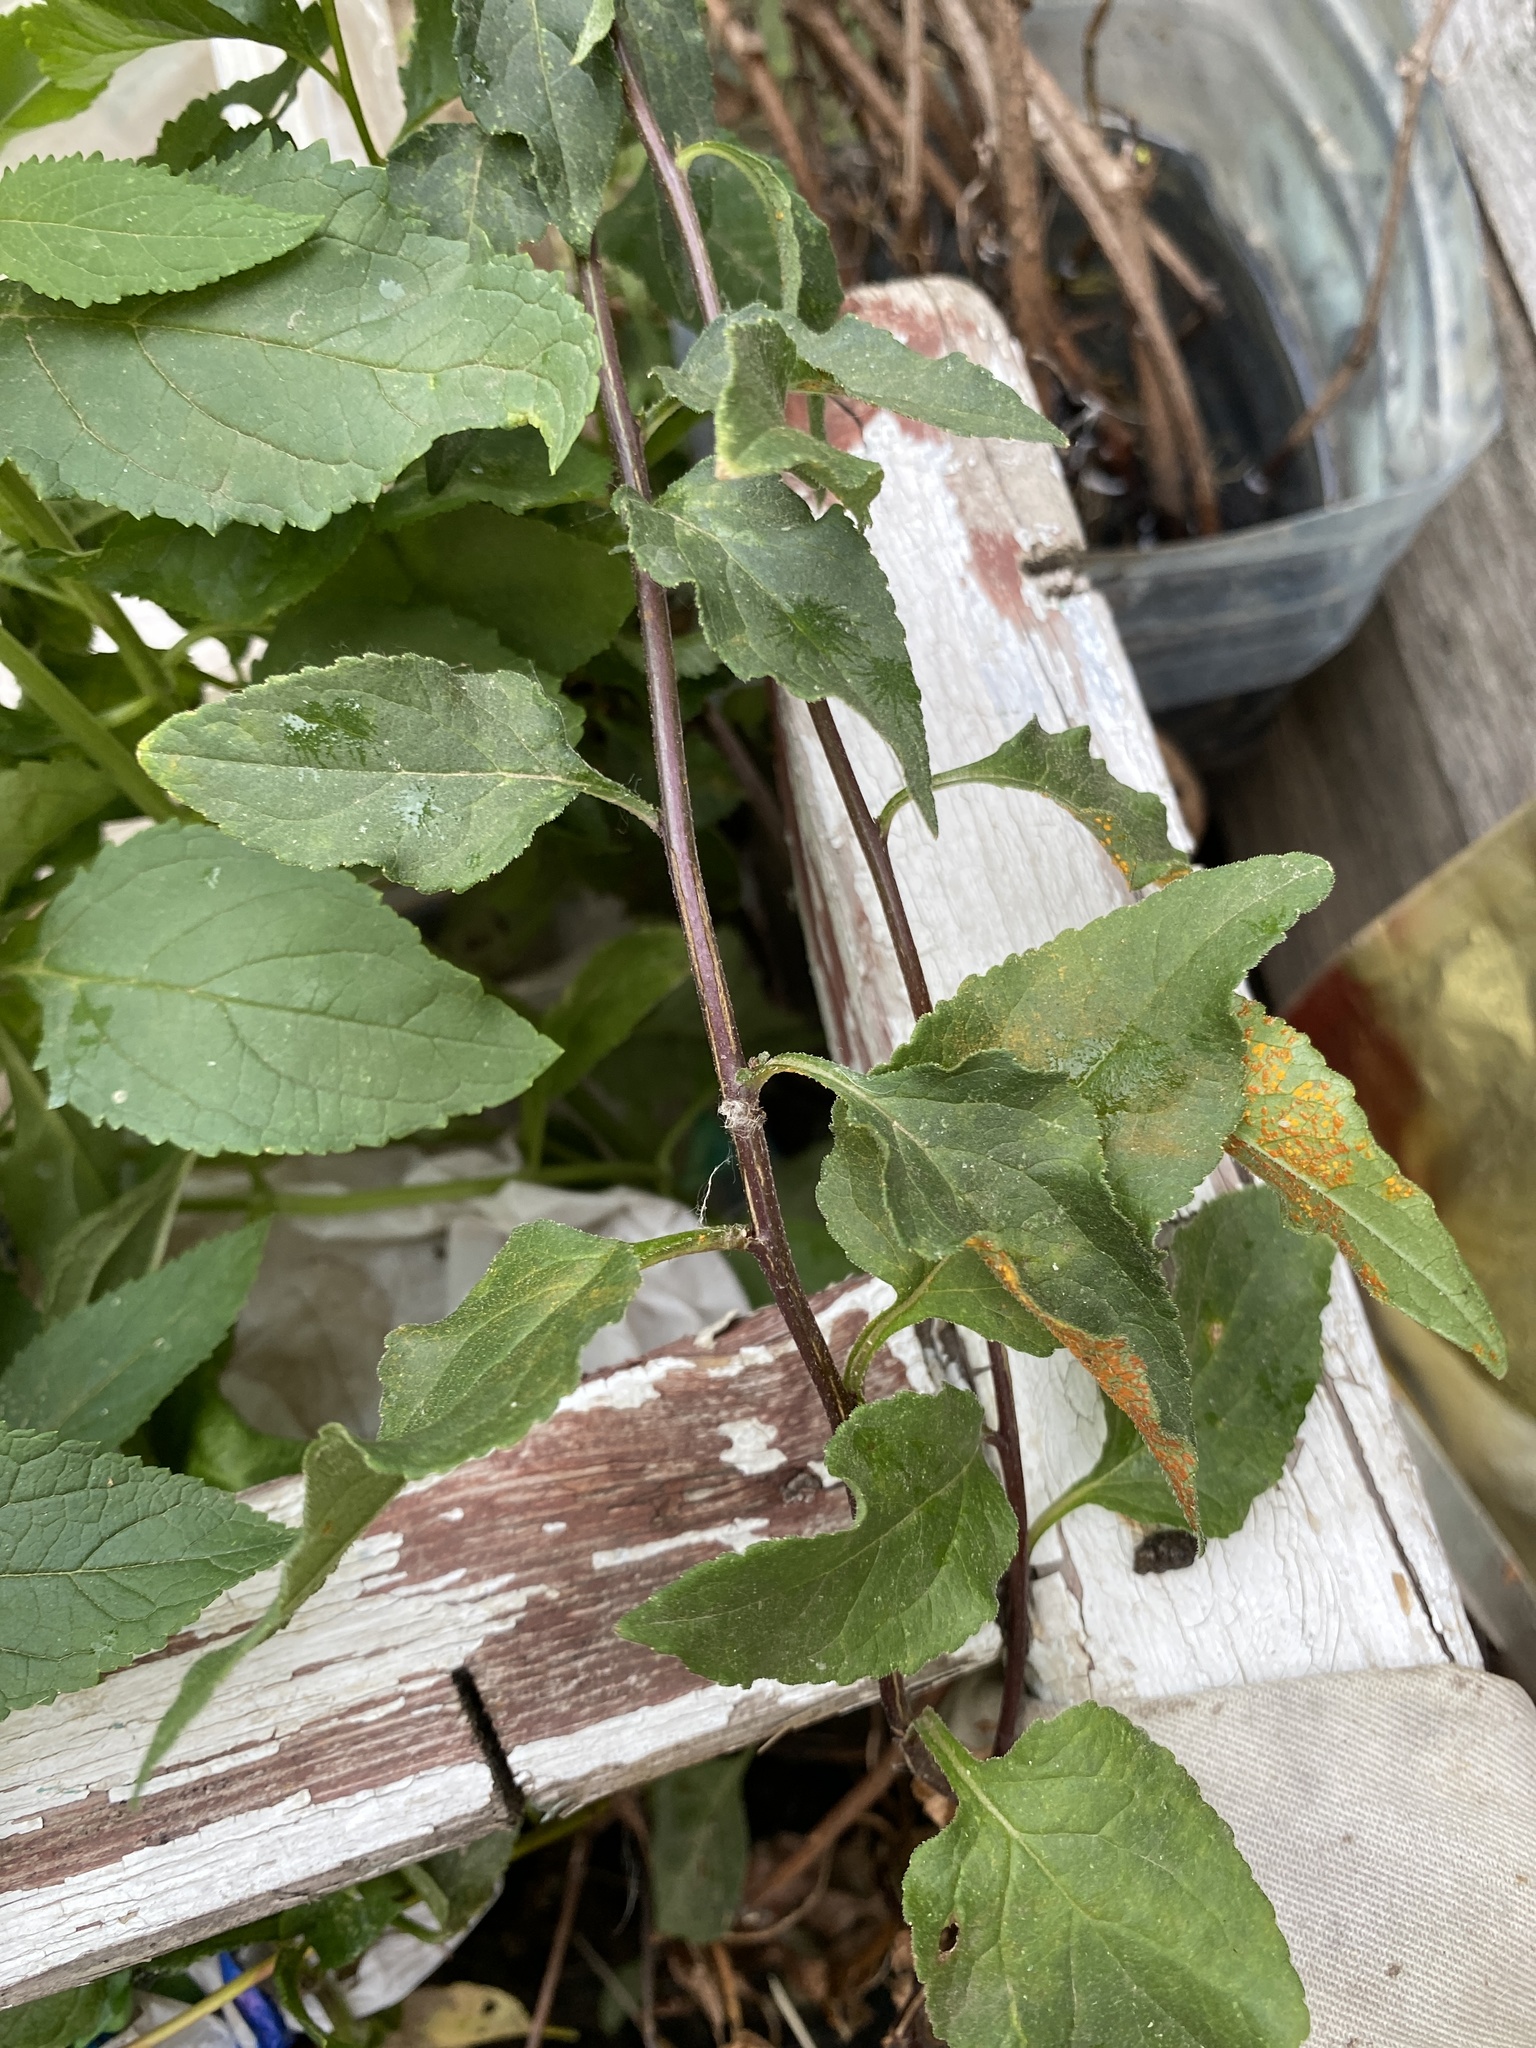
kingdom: Plantae
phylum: Tracheophyta
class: Magnoliopsida
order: Asterales
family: Campanulaceae
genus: Campanula
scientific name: Campanula rapunculoides
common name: Creeping bellflower
